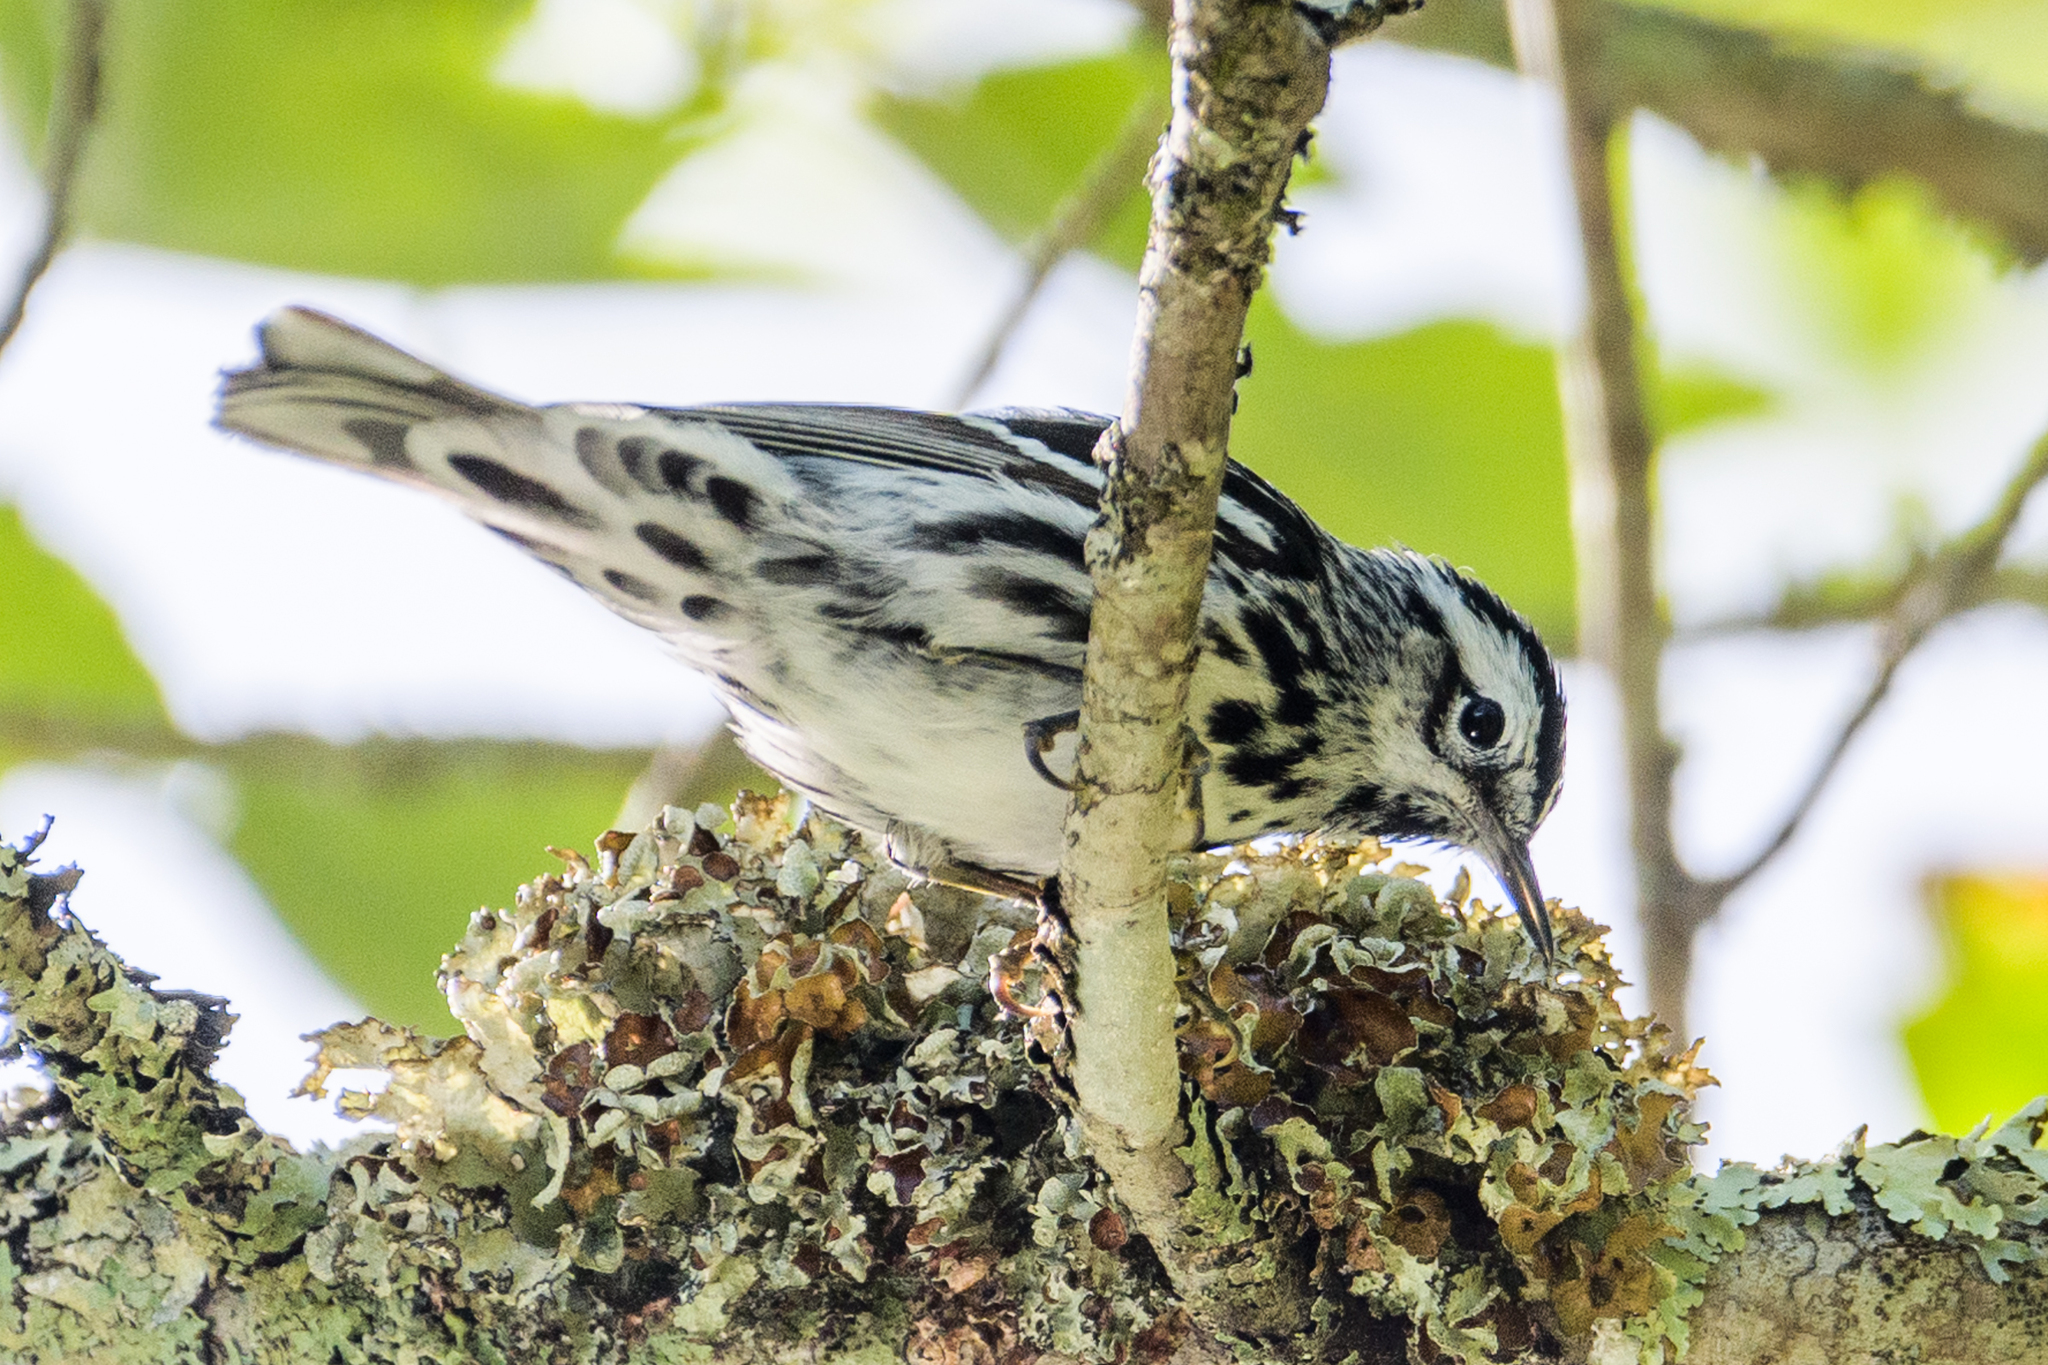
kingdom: Animalia
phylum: Chordata
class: Aves
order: Passeriformes
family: Parulidae
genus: Mniotilta
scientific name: Mniotilta varia
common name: Black-and-white warbler
